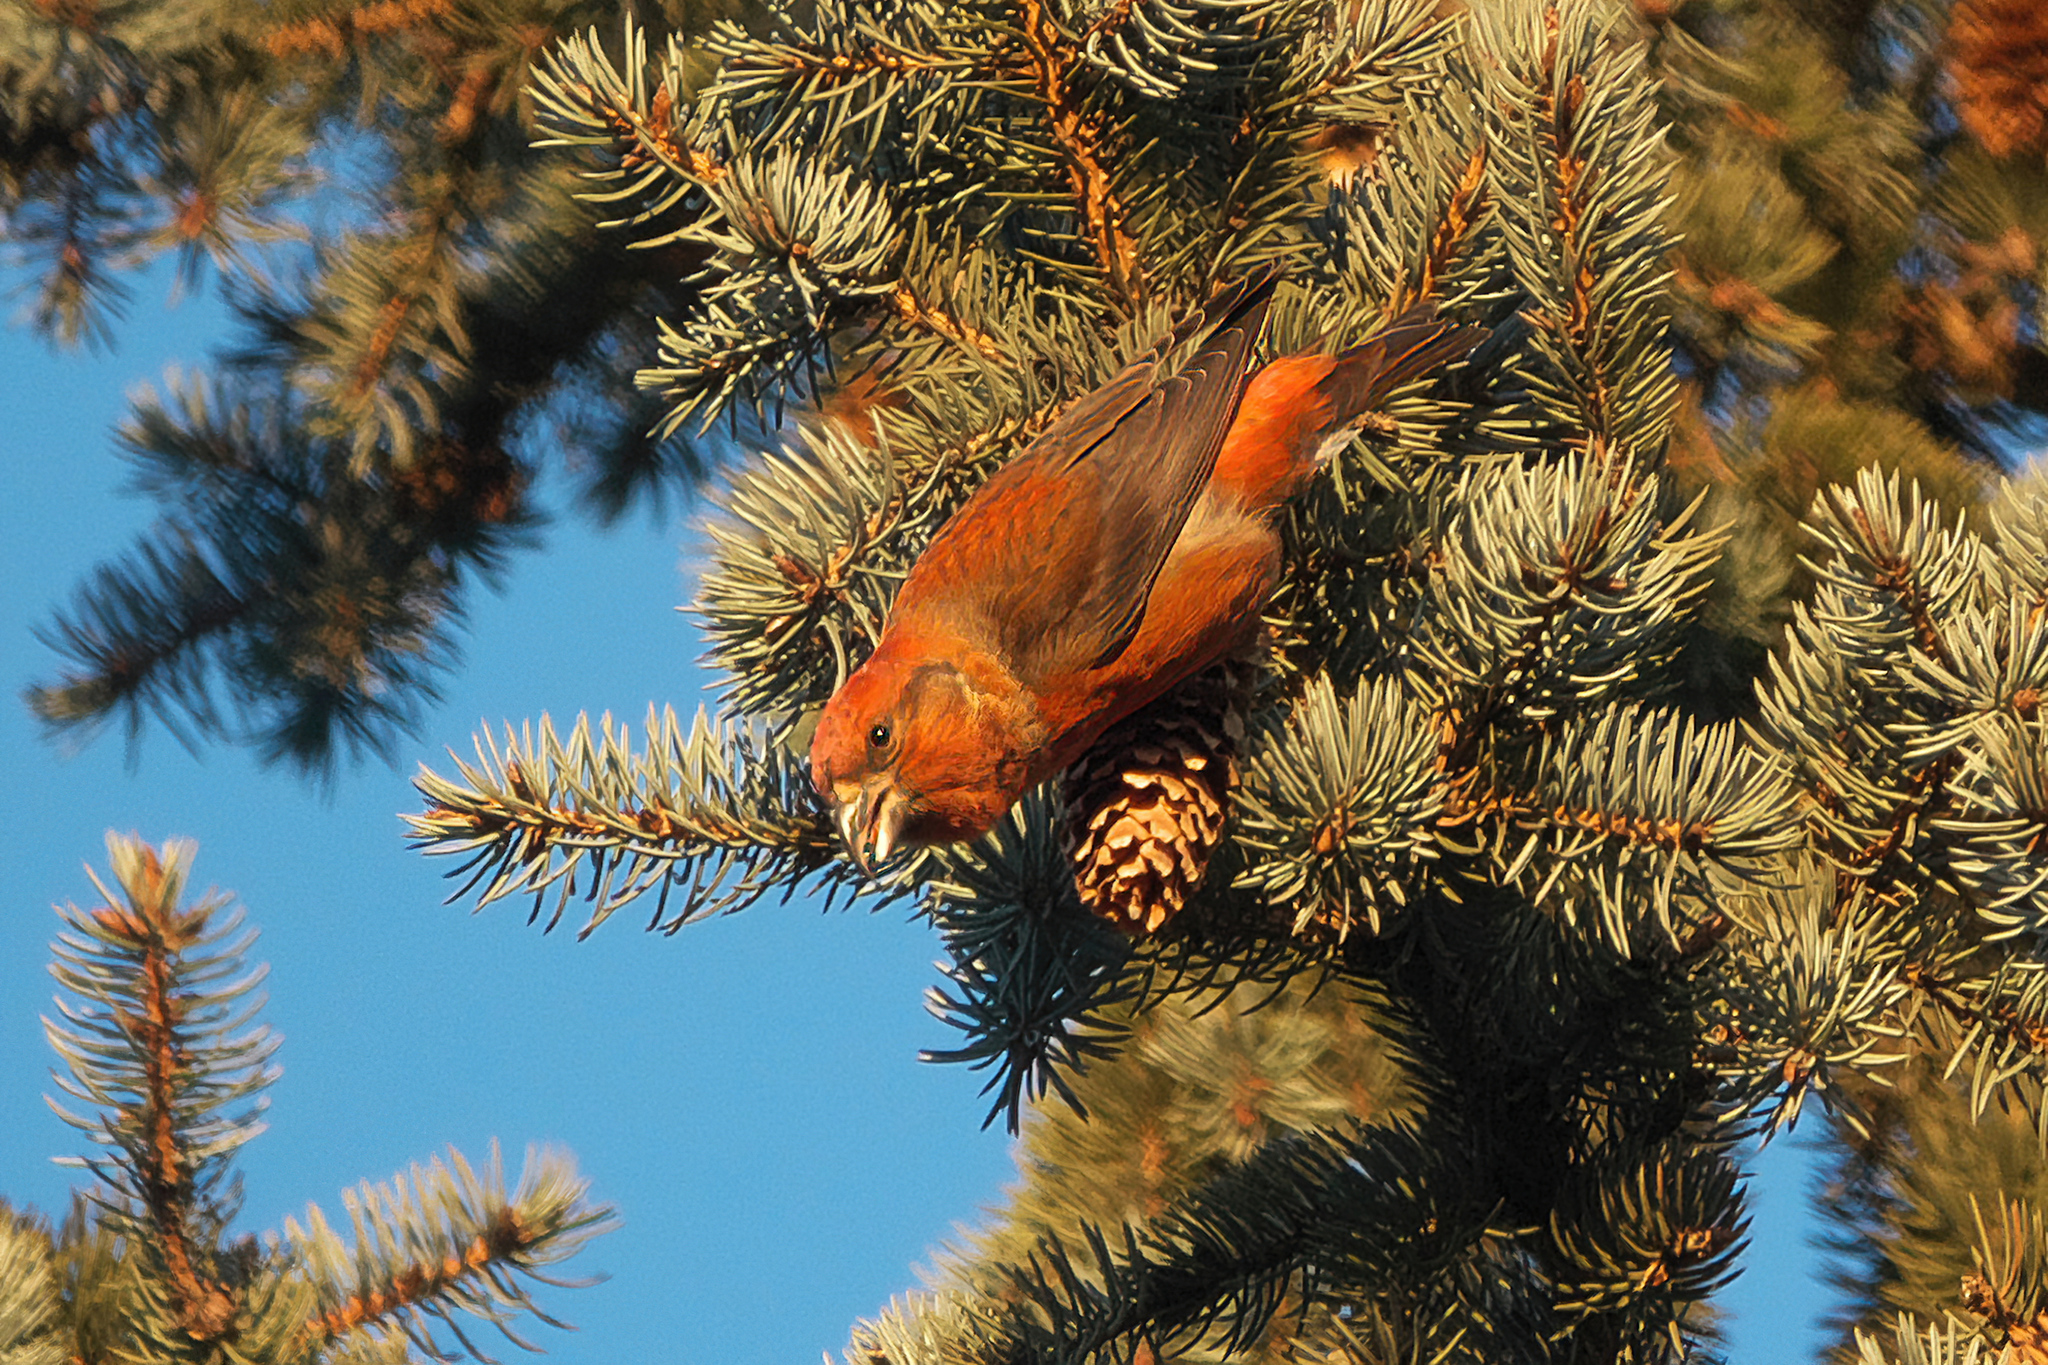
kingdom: Animalia
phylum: Chordata
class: Aves
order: Passeriformes
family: Fringillidae
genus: Loxia
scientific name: Loxia curvirostra
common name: Red crossbill
